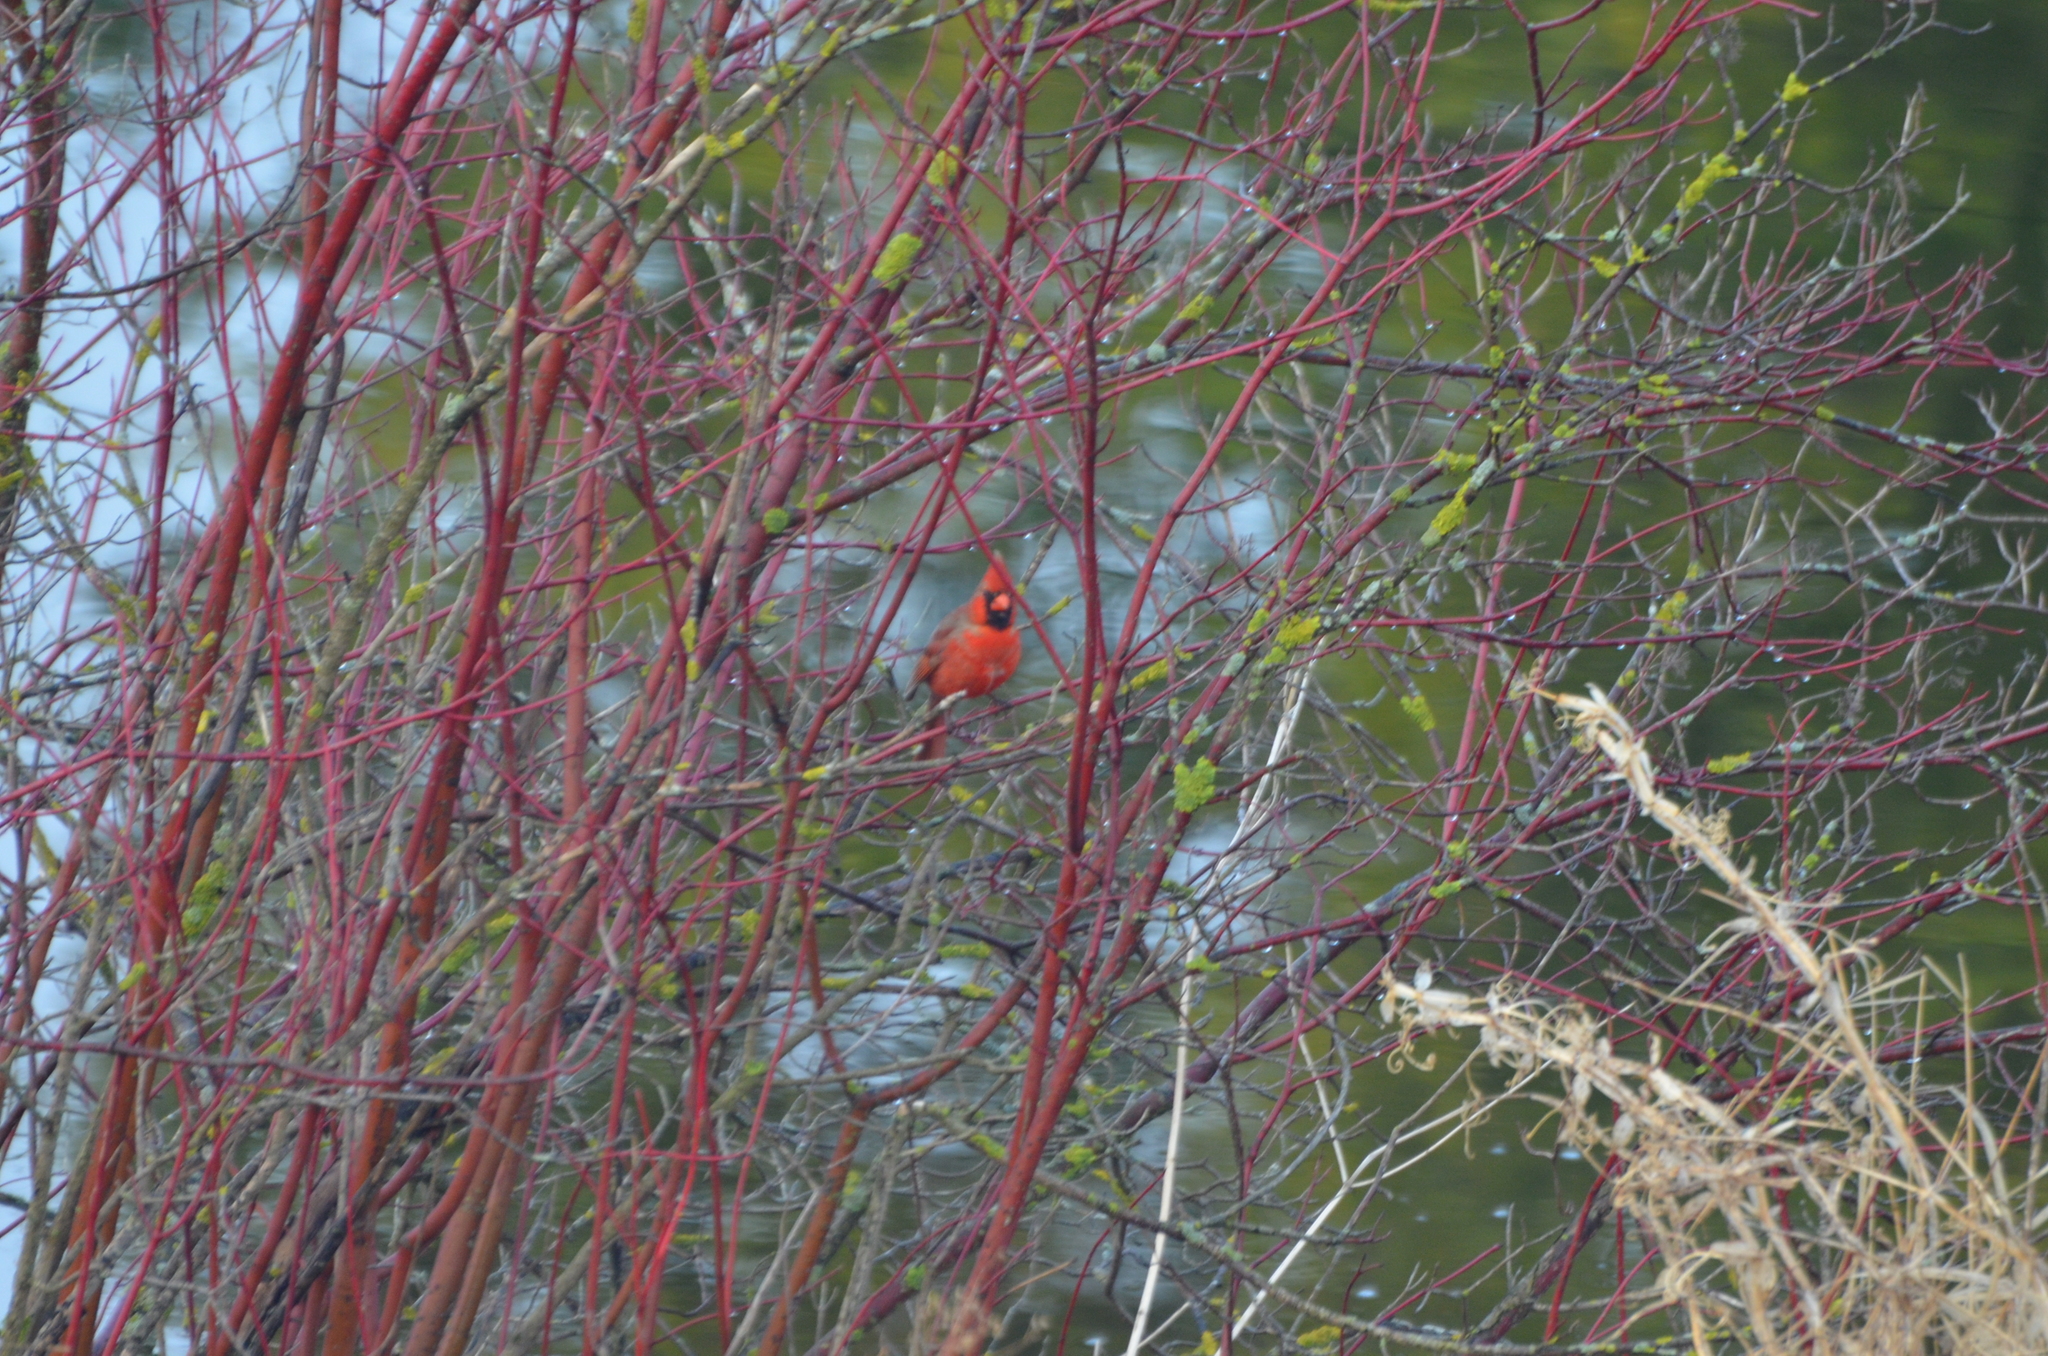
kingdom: Animalia
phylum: Chordata
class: Aves
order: Passeriformes
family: Cardinalidae
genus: Cardinalis
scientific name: Cardinalis cardinalis
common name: Northern cardinal
